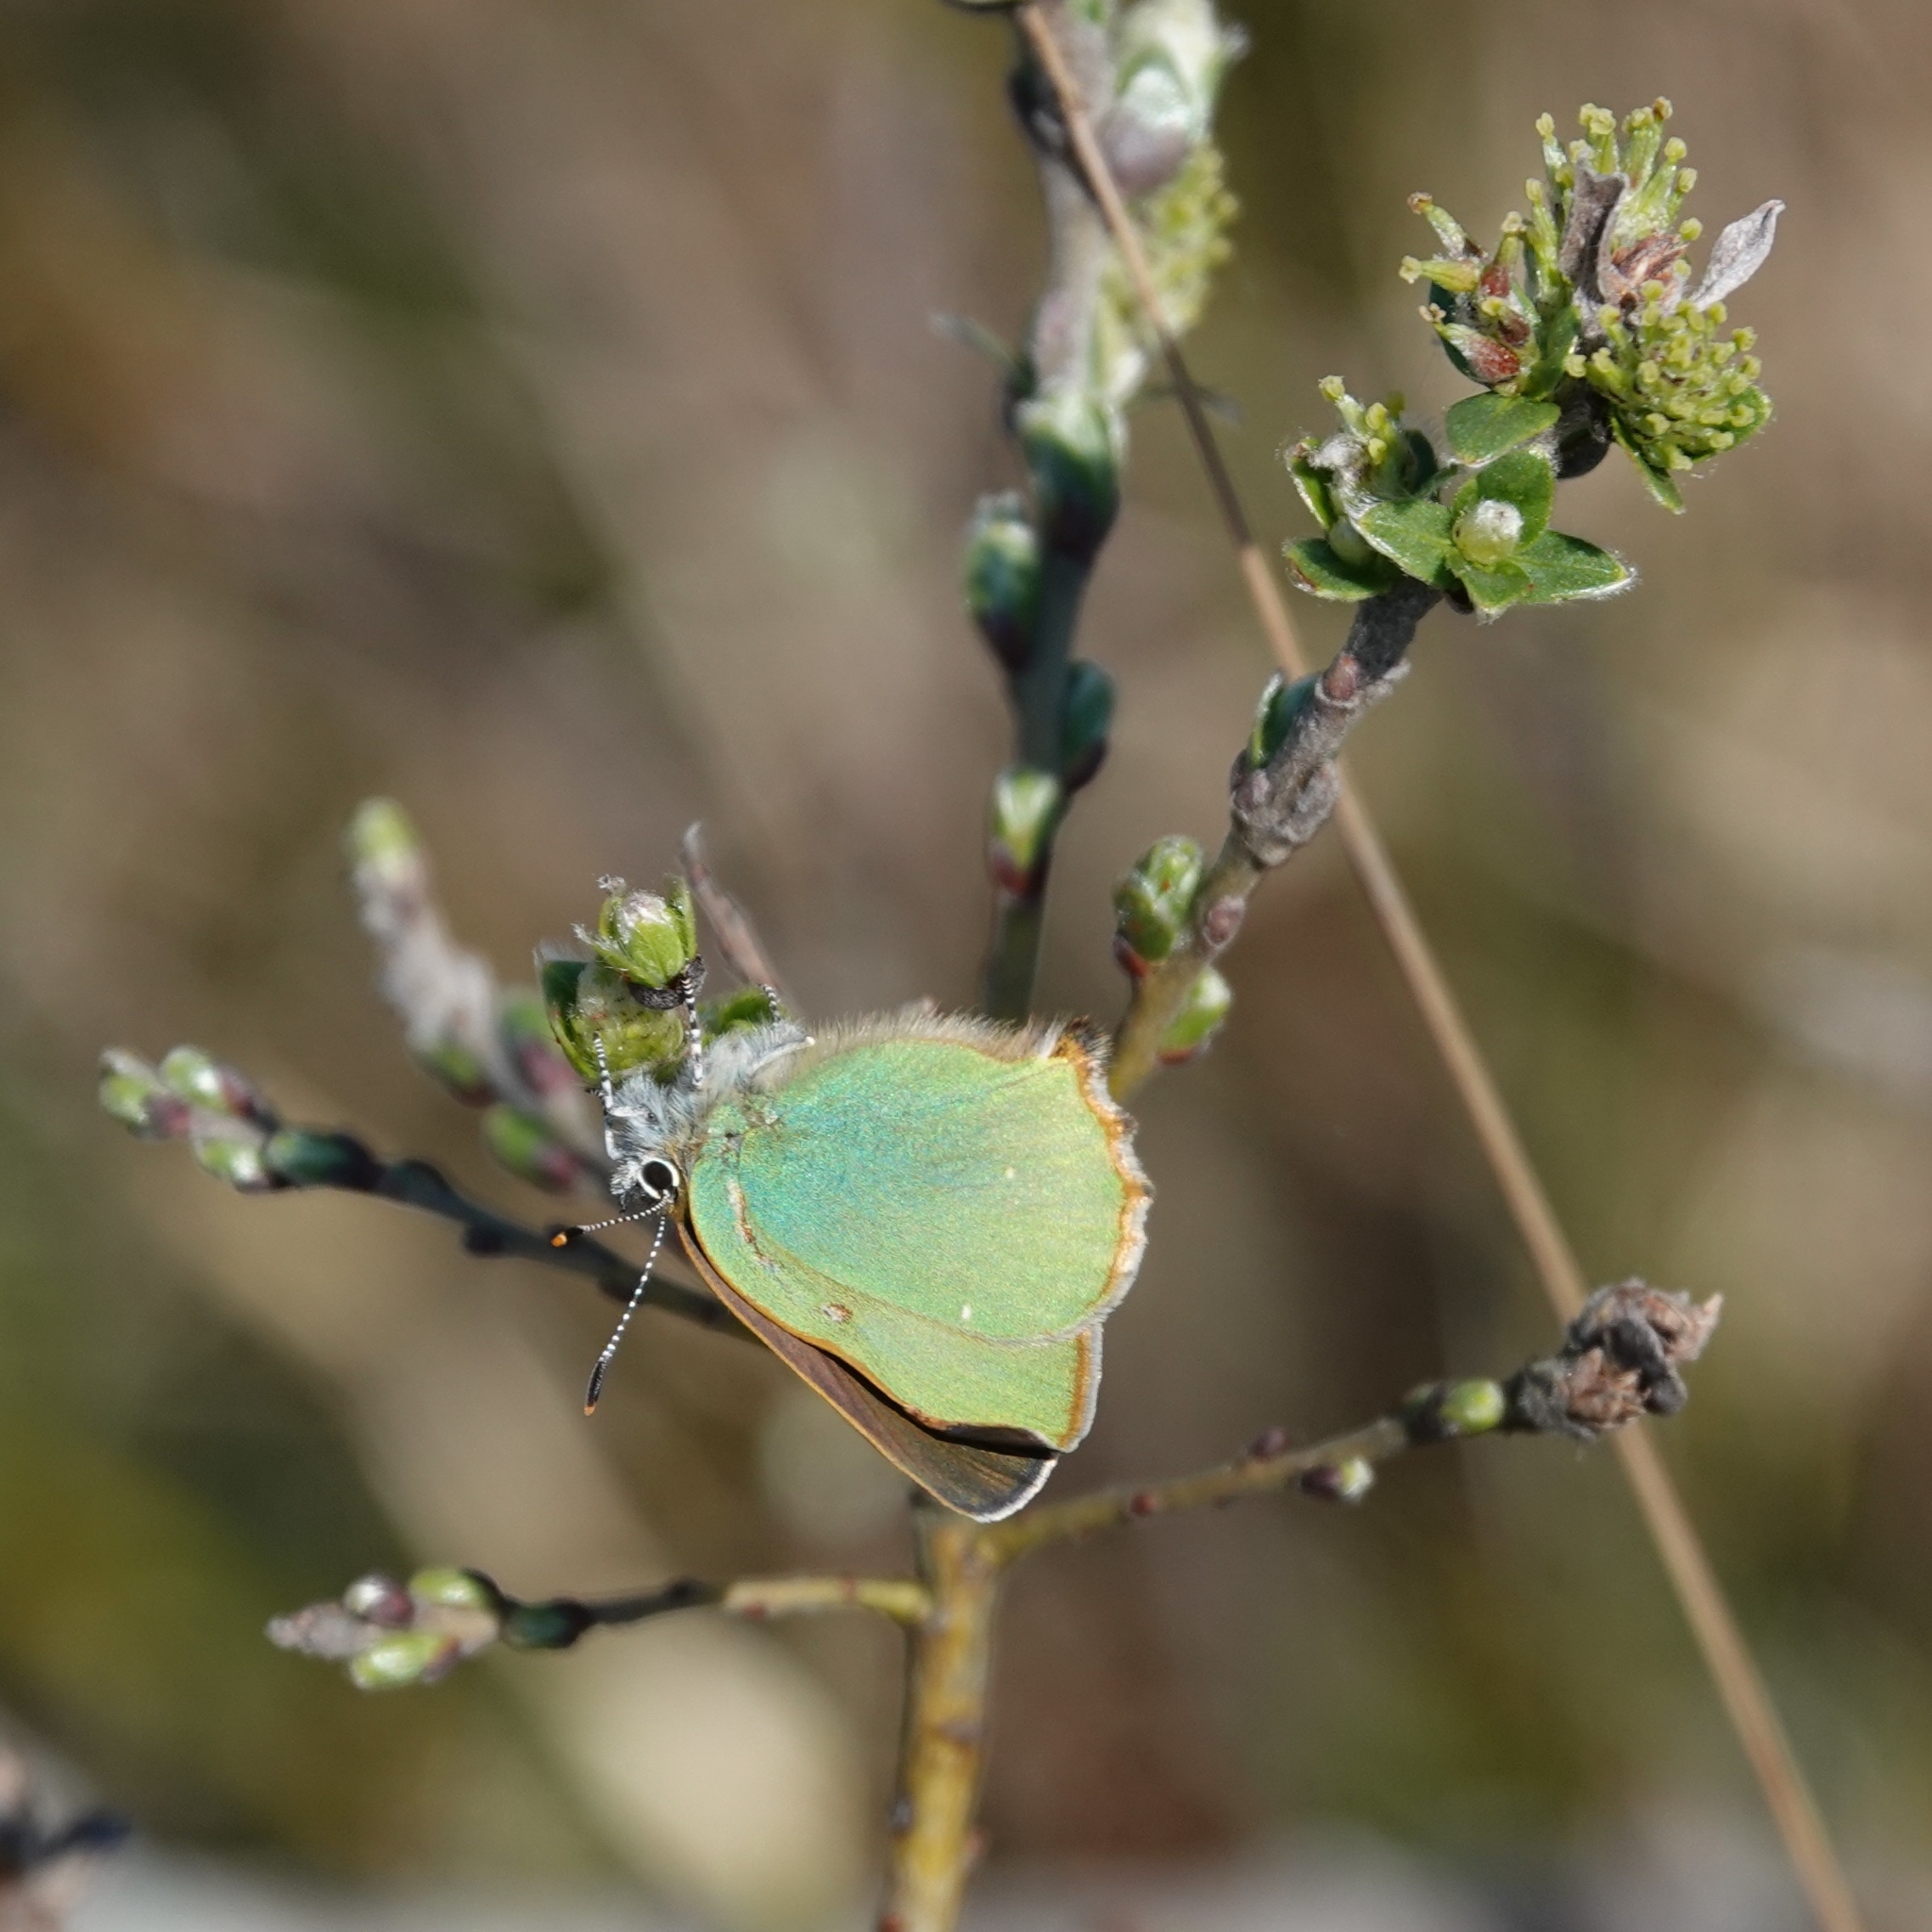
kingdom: Animalia
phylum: Arthropoda
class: Insecta
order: Lepidoptera
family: Lycaenidae
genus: Callophrys
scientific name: Callophrys rubi
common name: Green hairstreak
